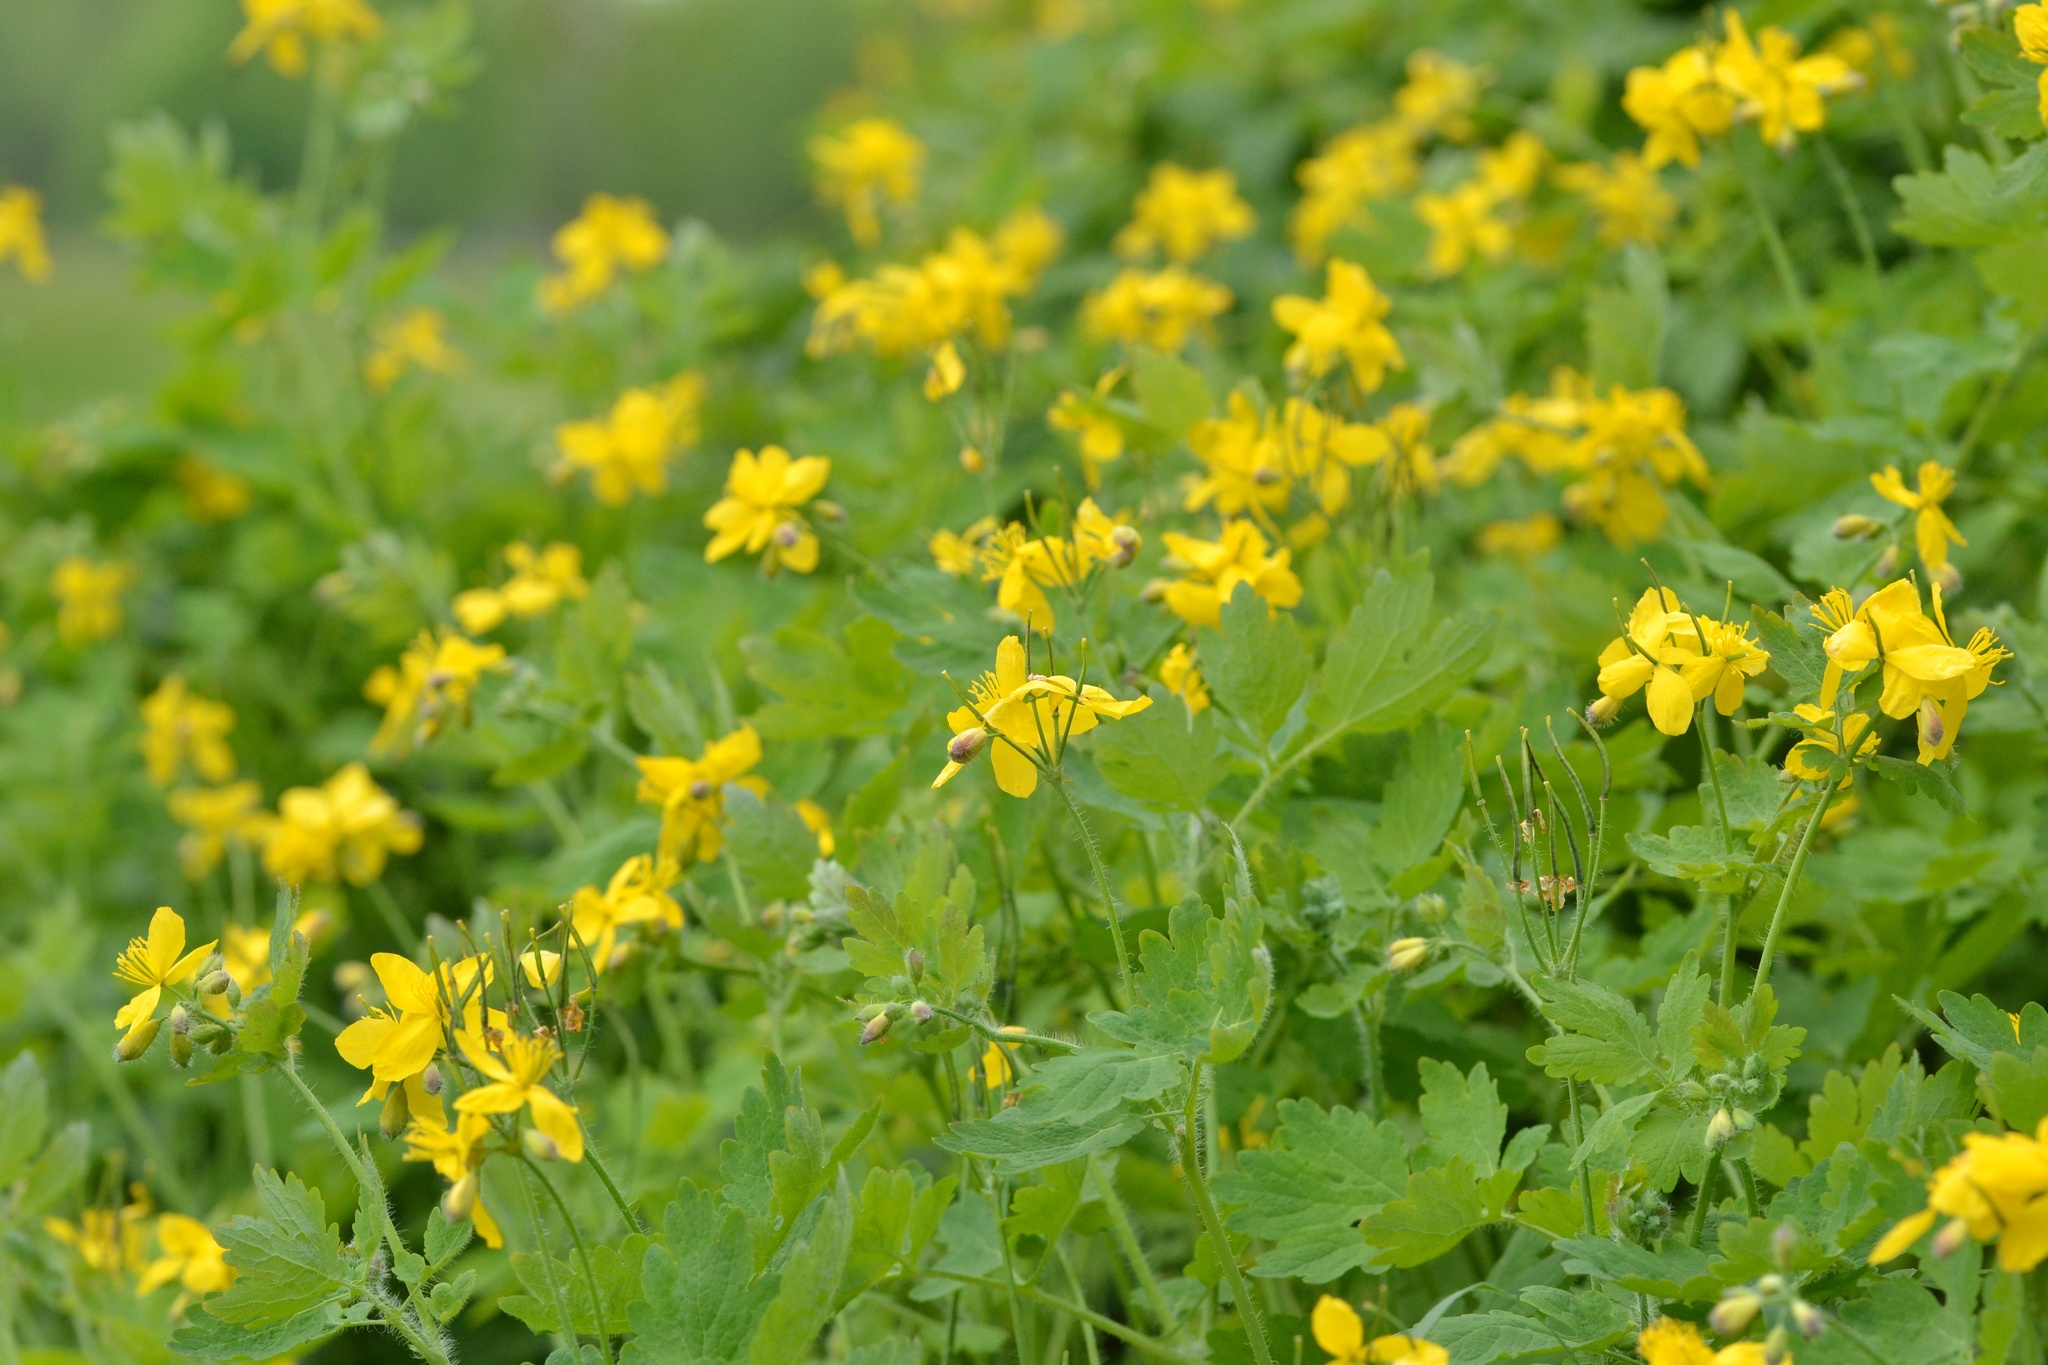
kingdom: Plantae
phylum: Tracheophyta
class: Magnoliopsida
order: Ranunculales
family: Papaveraceae
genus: Chelidonium
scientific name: Chelidonium majus
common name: Greater celandine
